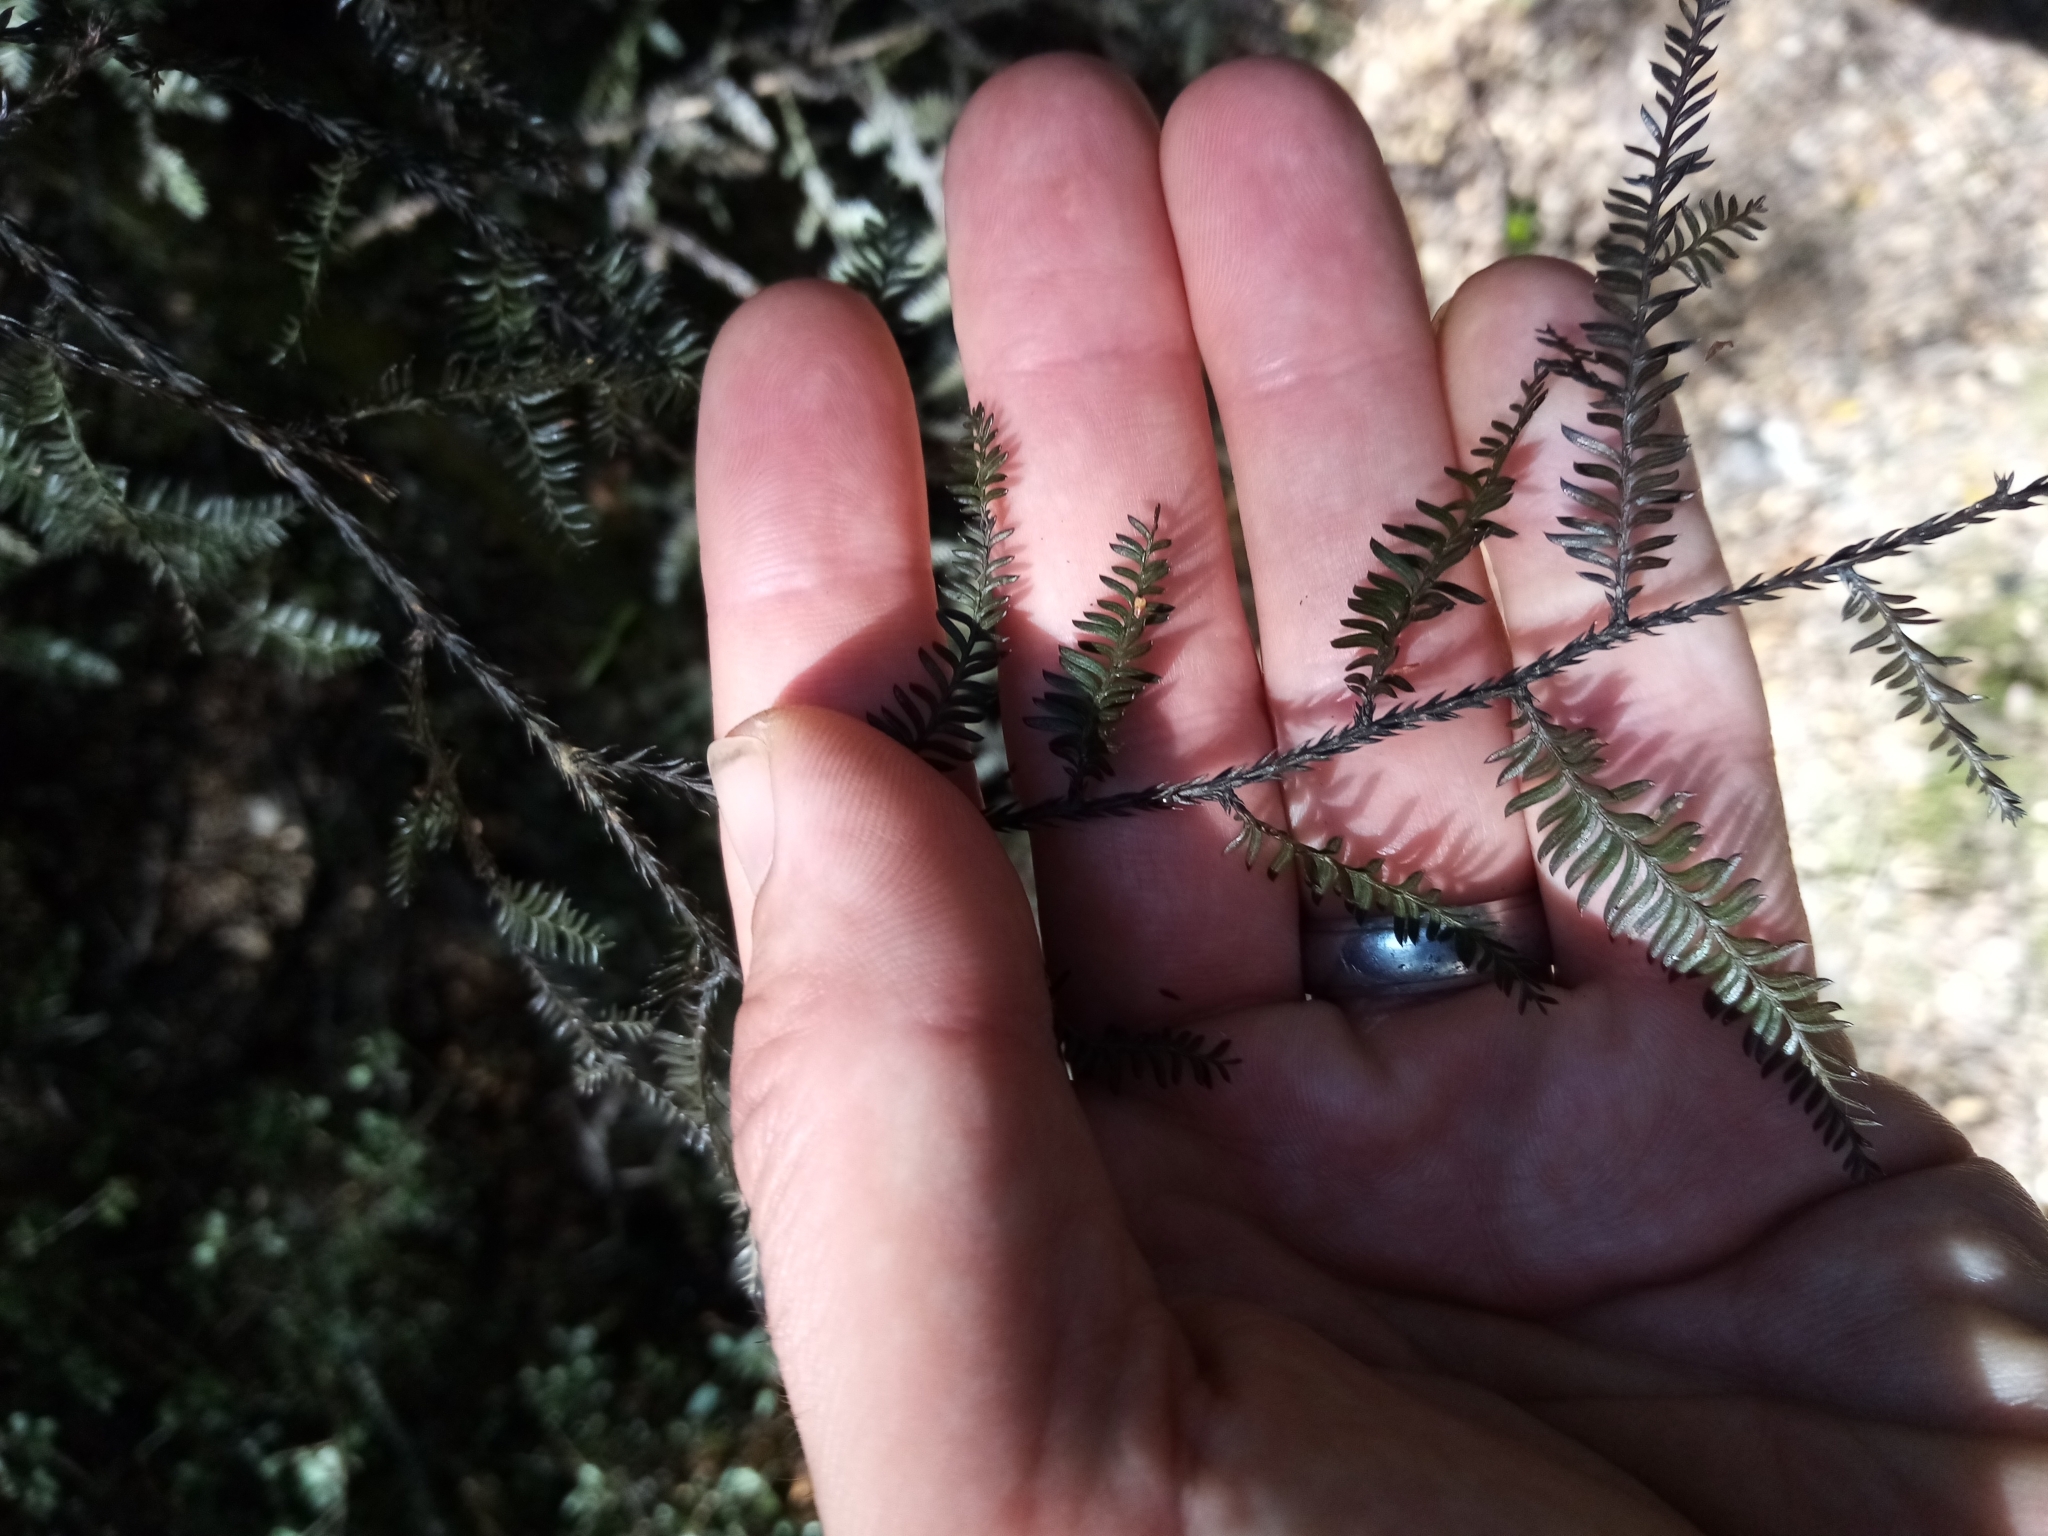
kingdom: Plantae
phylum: Tracheophyta
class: Pinopsida
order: Pinales
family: Podocarpaceae
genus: Dacrycarpus
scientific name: Dacrycarpus dacrydioides
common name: White pine
